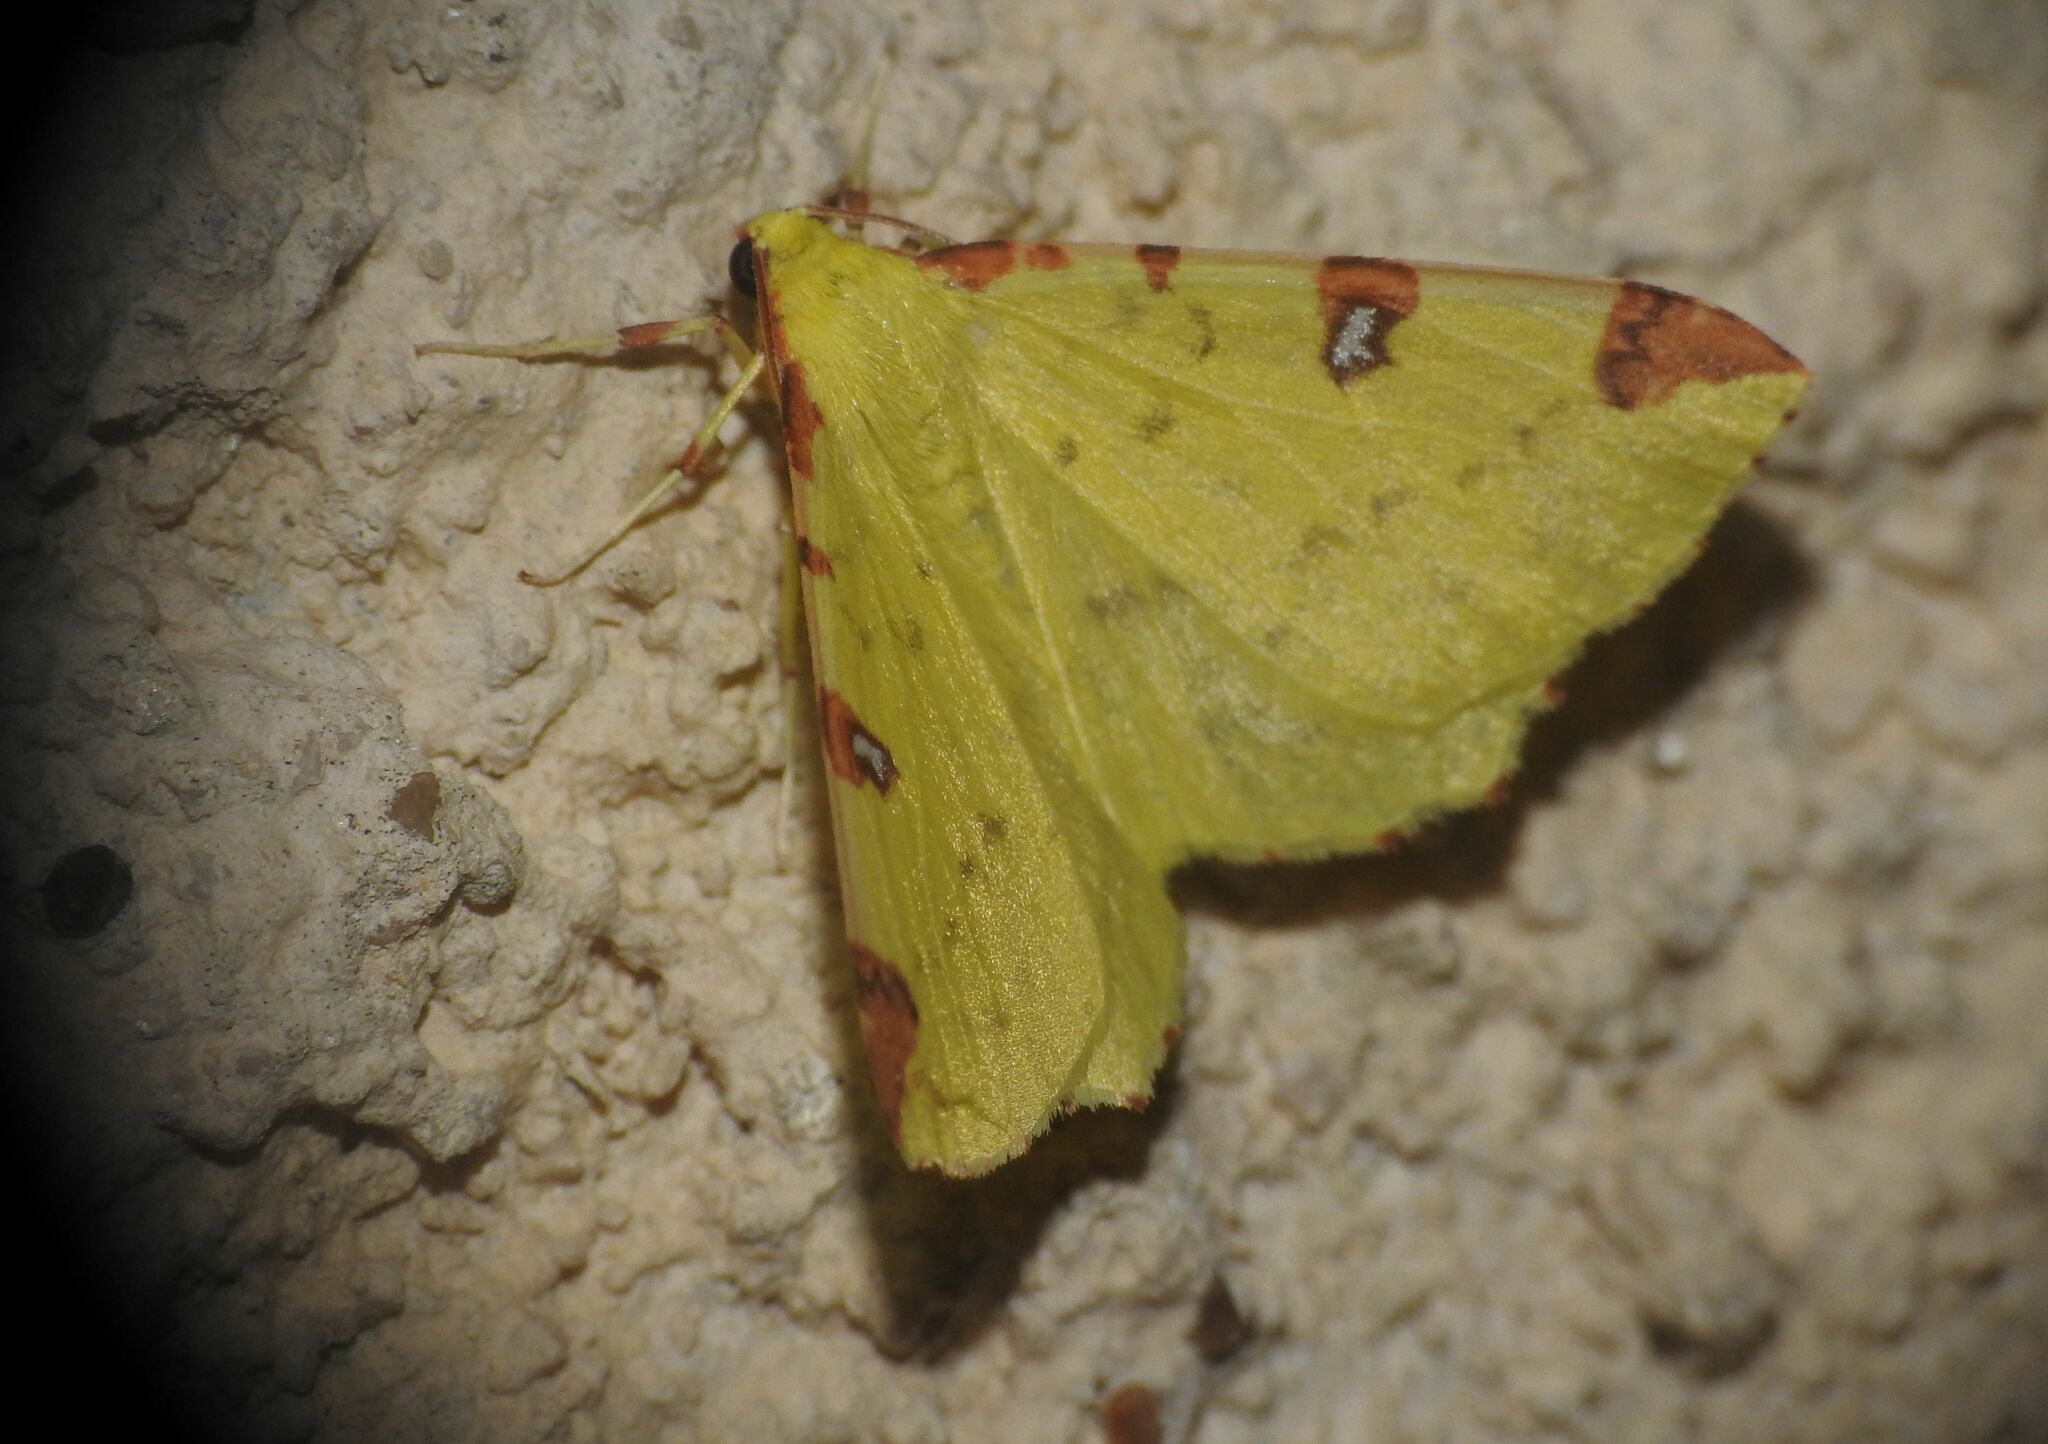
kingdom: Animalia
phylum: Arthropoda
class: Insecta
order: Lepidoptera
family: Geometridae
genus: Opisthograptis
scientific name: Opisthograptis luteolata
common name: Brimstone moth
